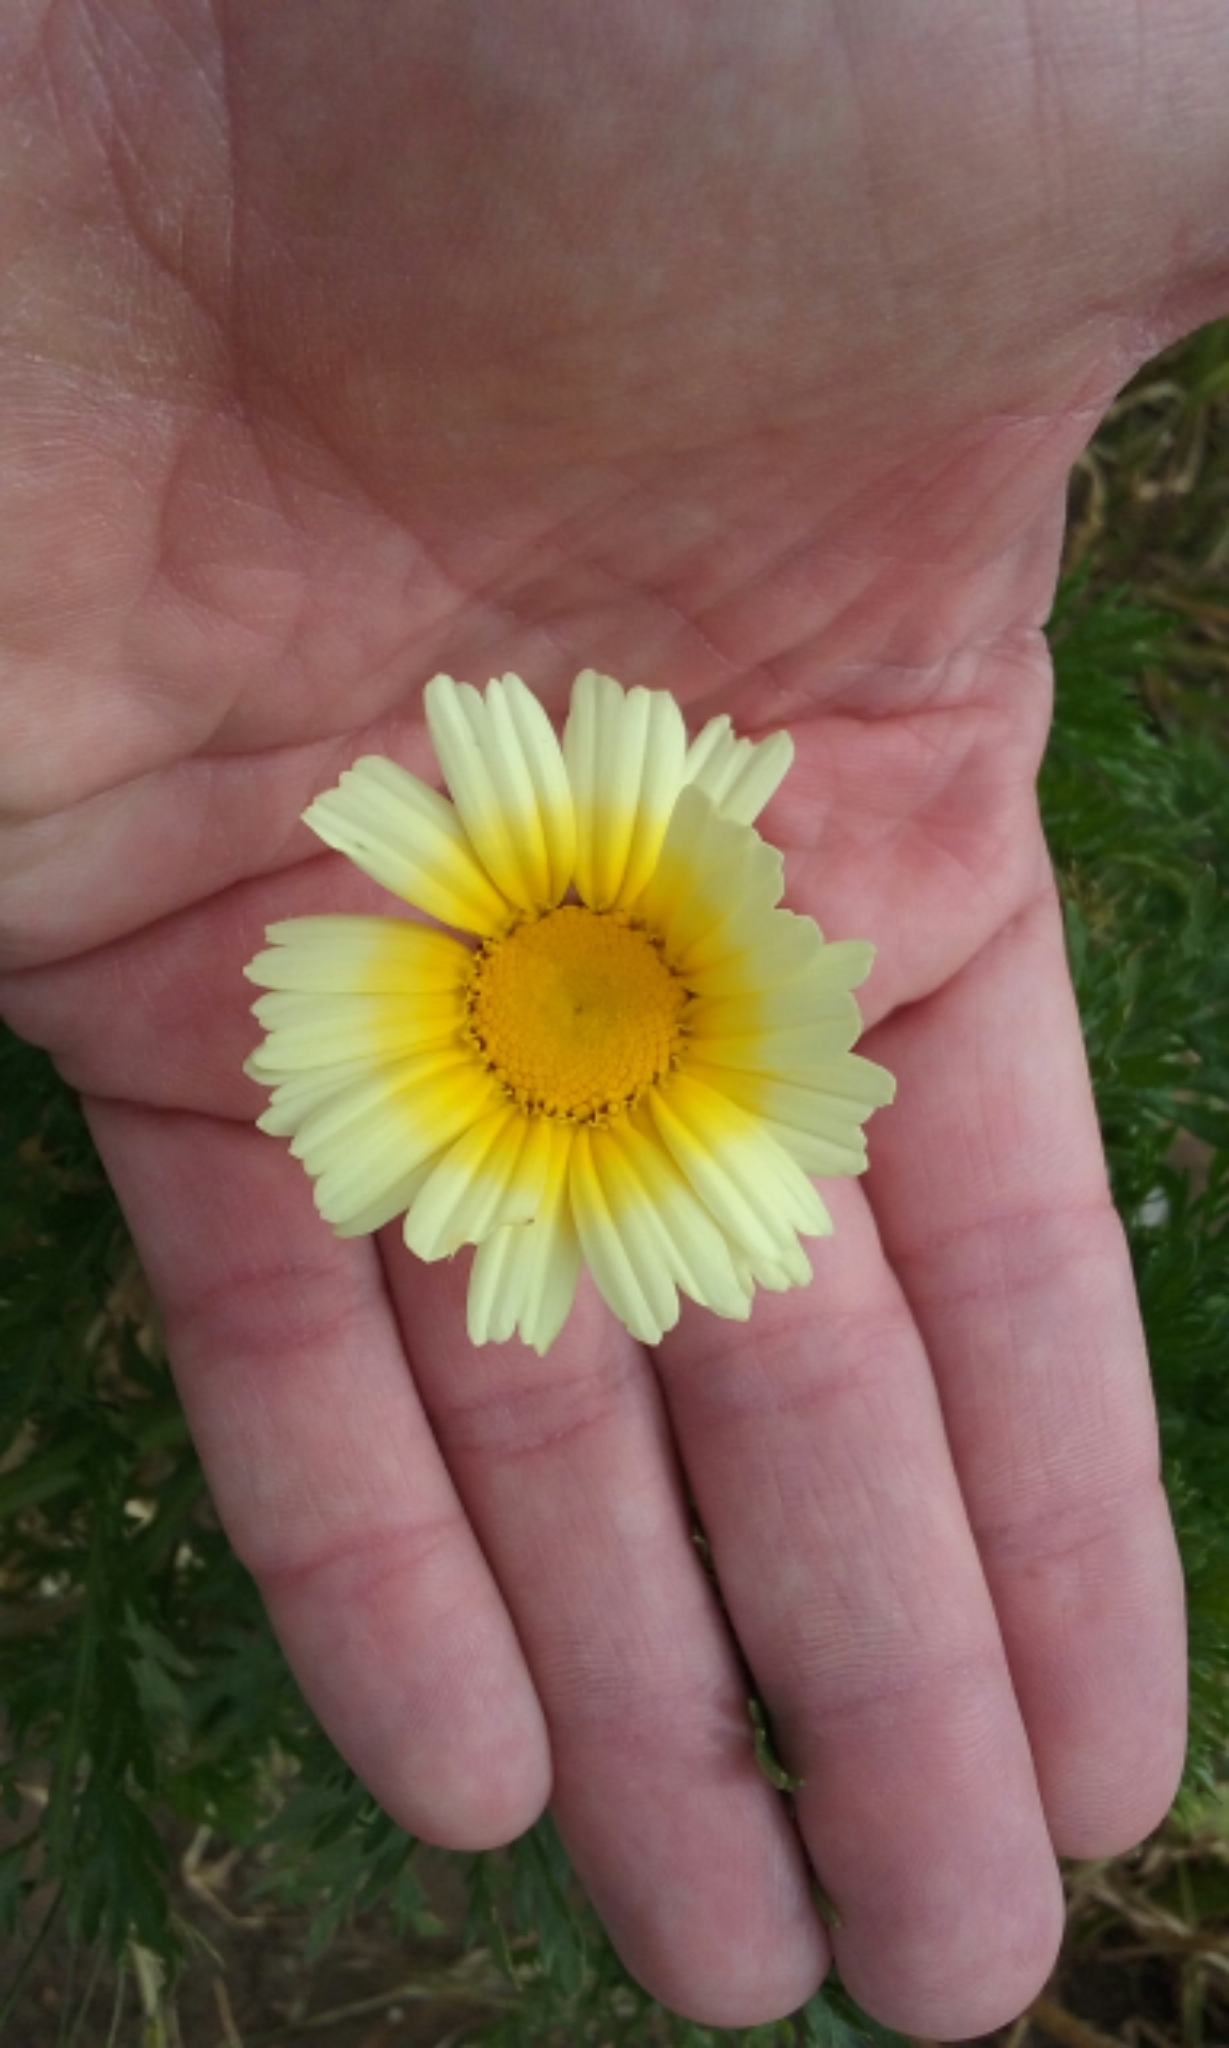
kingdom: Plantae
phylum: Tracheophyta
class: Magnoliopsida
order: Asterales
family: Asteraceae
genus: Glebionis
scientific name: Glebionis coronaria
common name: Crowndaisy
